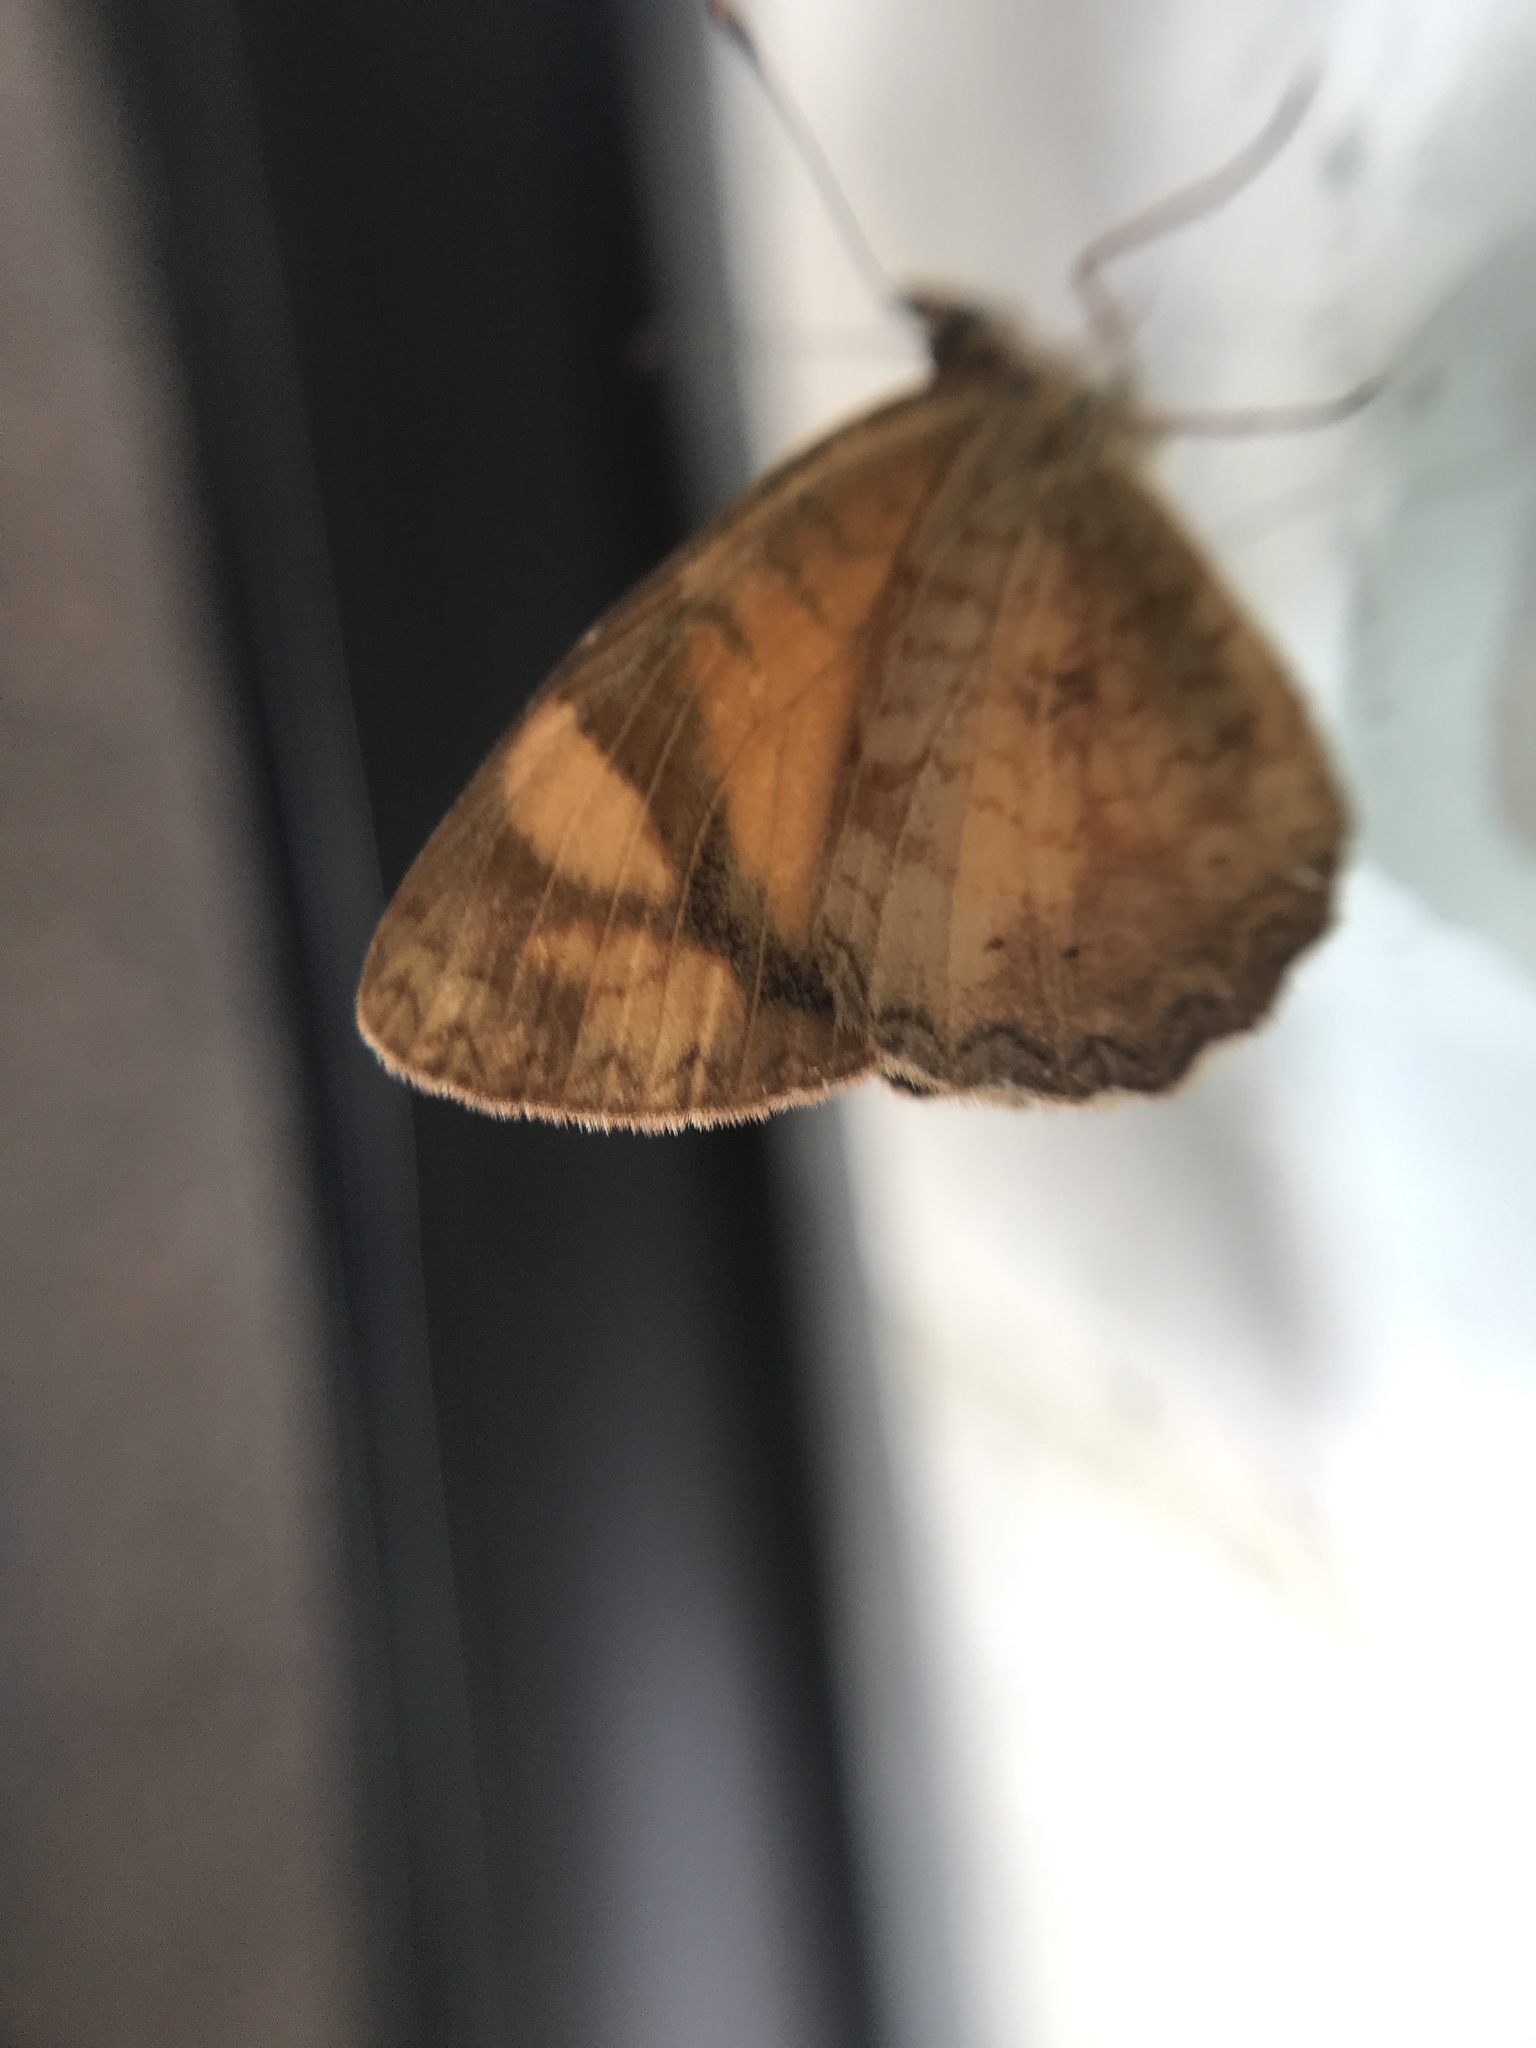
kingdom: Animalia
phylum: Arthropoda
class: Insecta
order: Lepidoptera
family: Nymphalidae
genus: Tegosa
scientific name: Tegosa claudina
